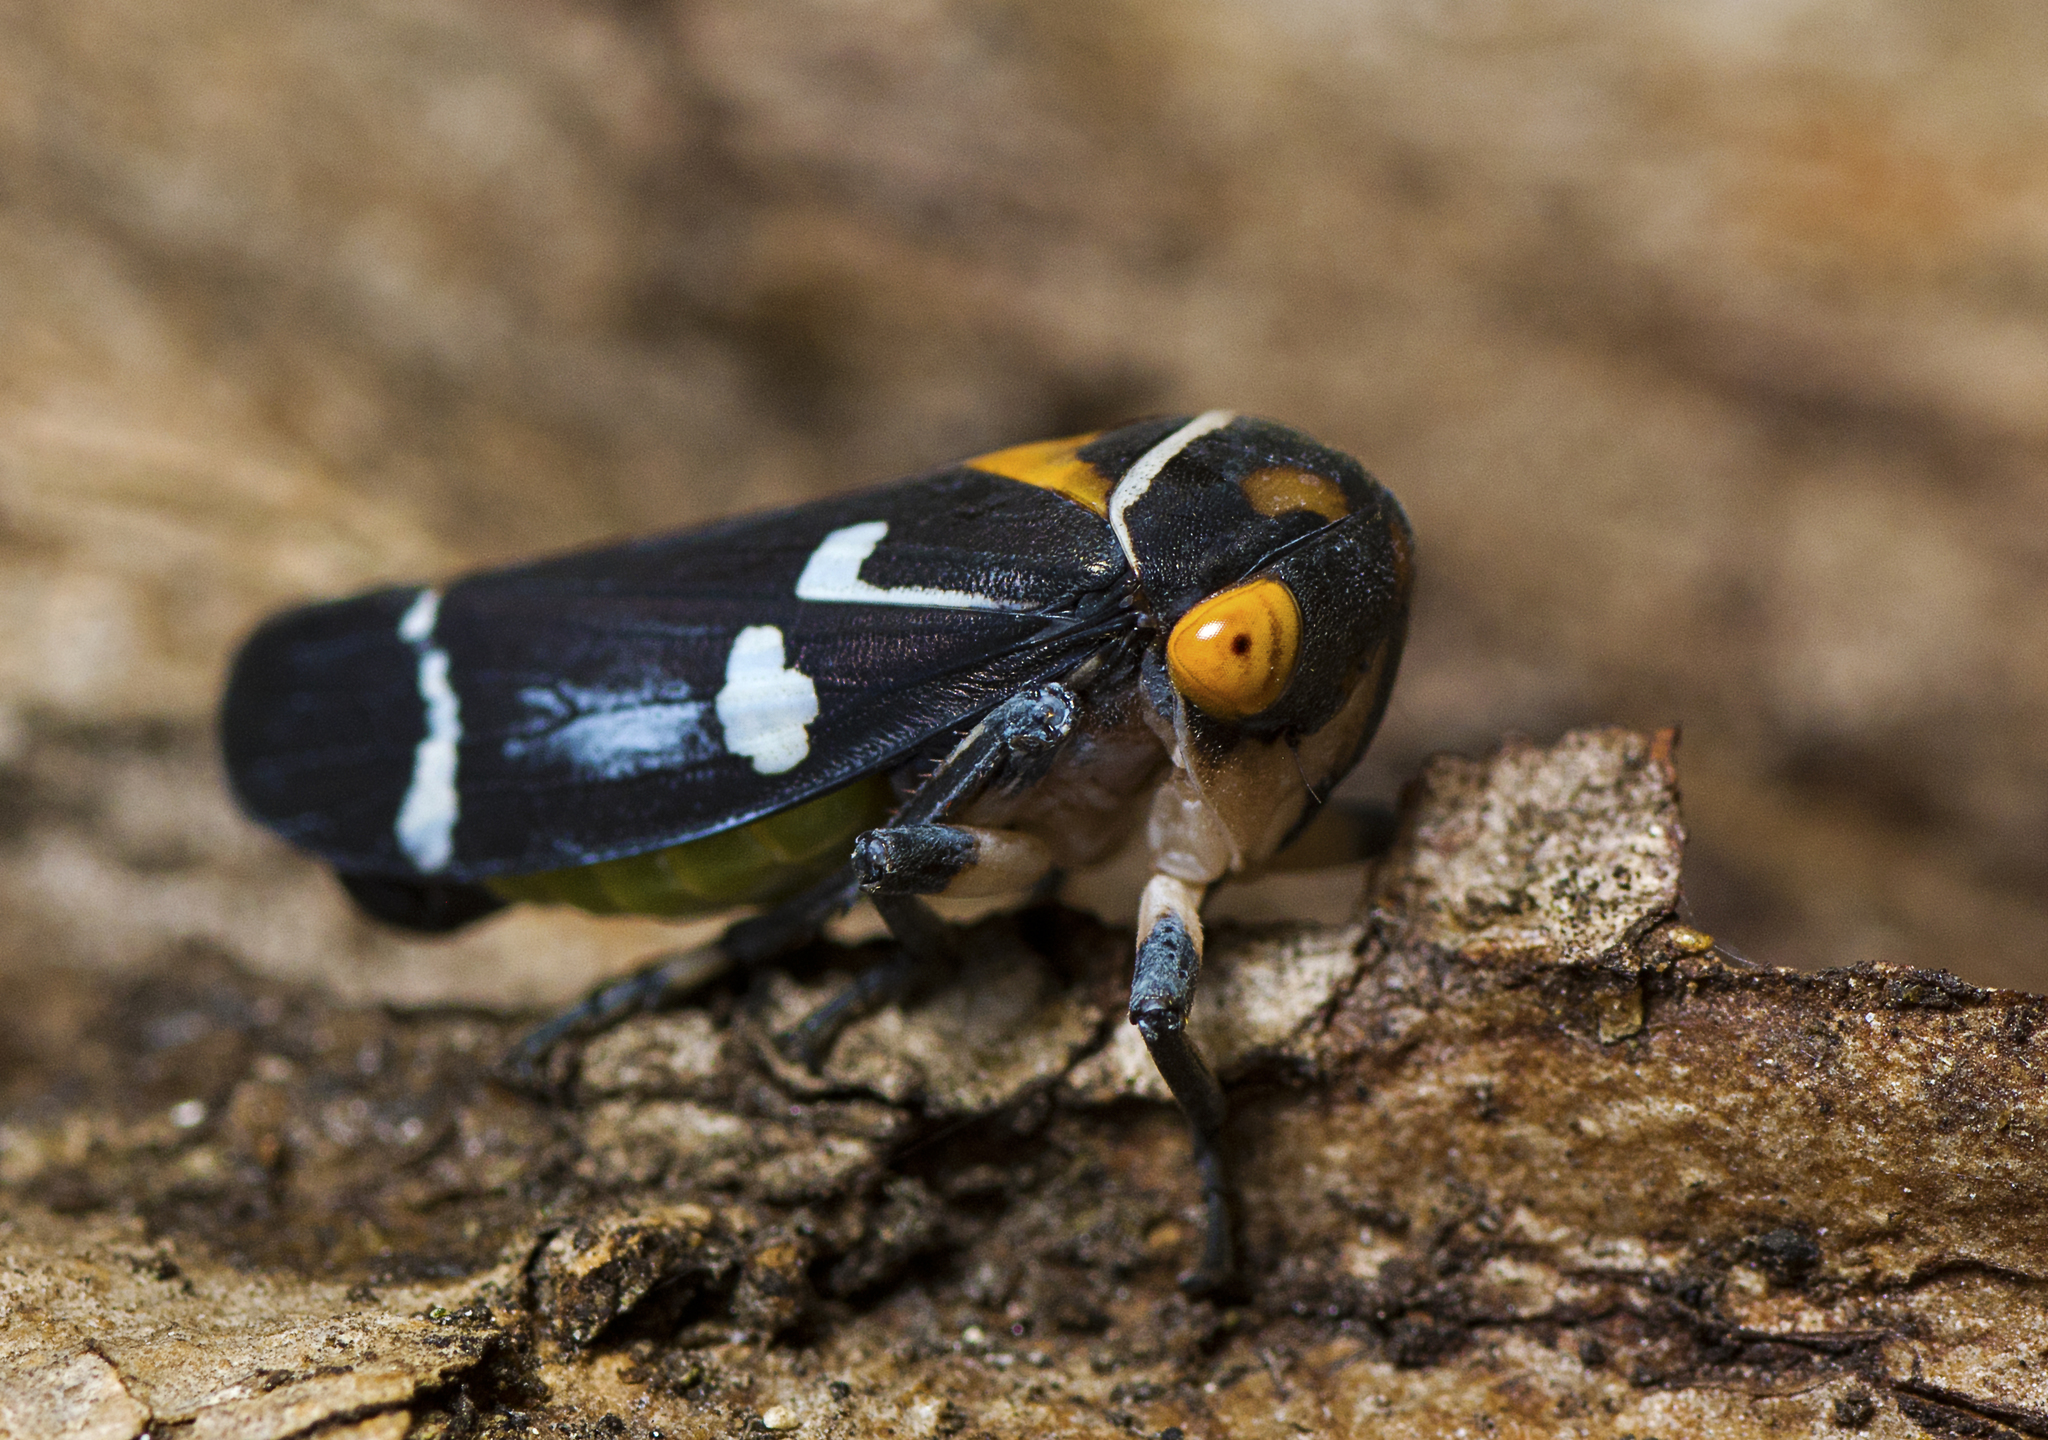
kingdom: Animalia
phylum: Arthropoda
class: Insecta
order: Hemiptera
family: Cicadellidae
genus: Eurymeloides
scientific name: Eurymeloides pulchra
